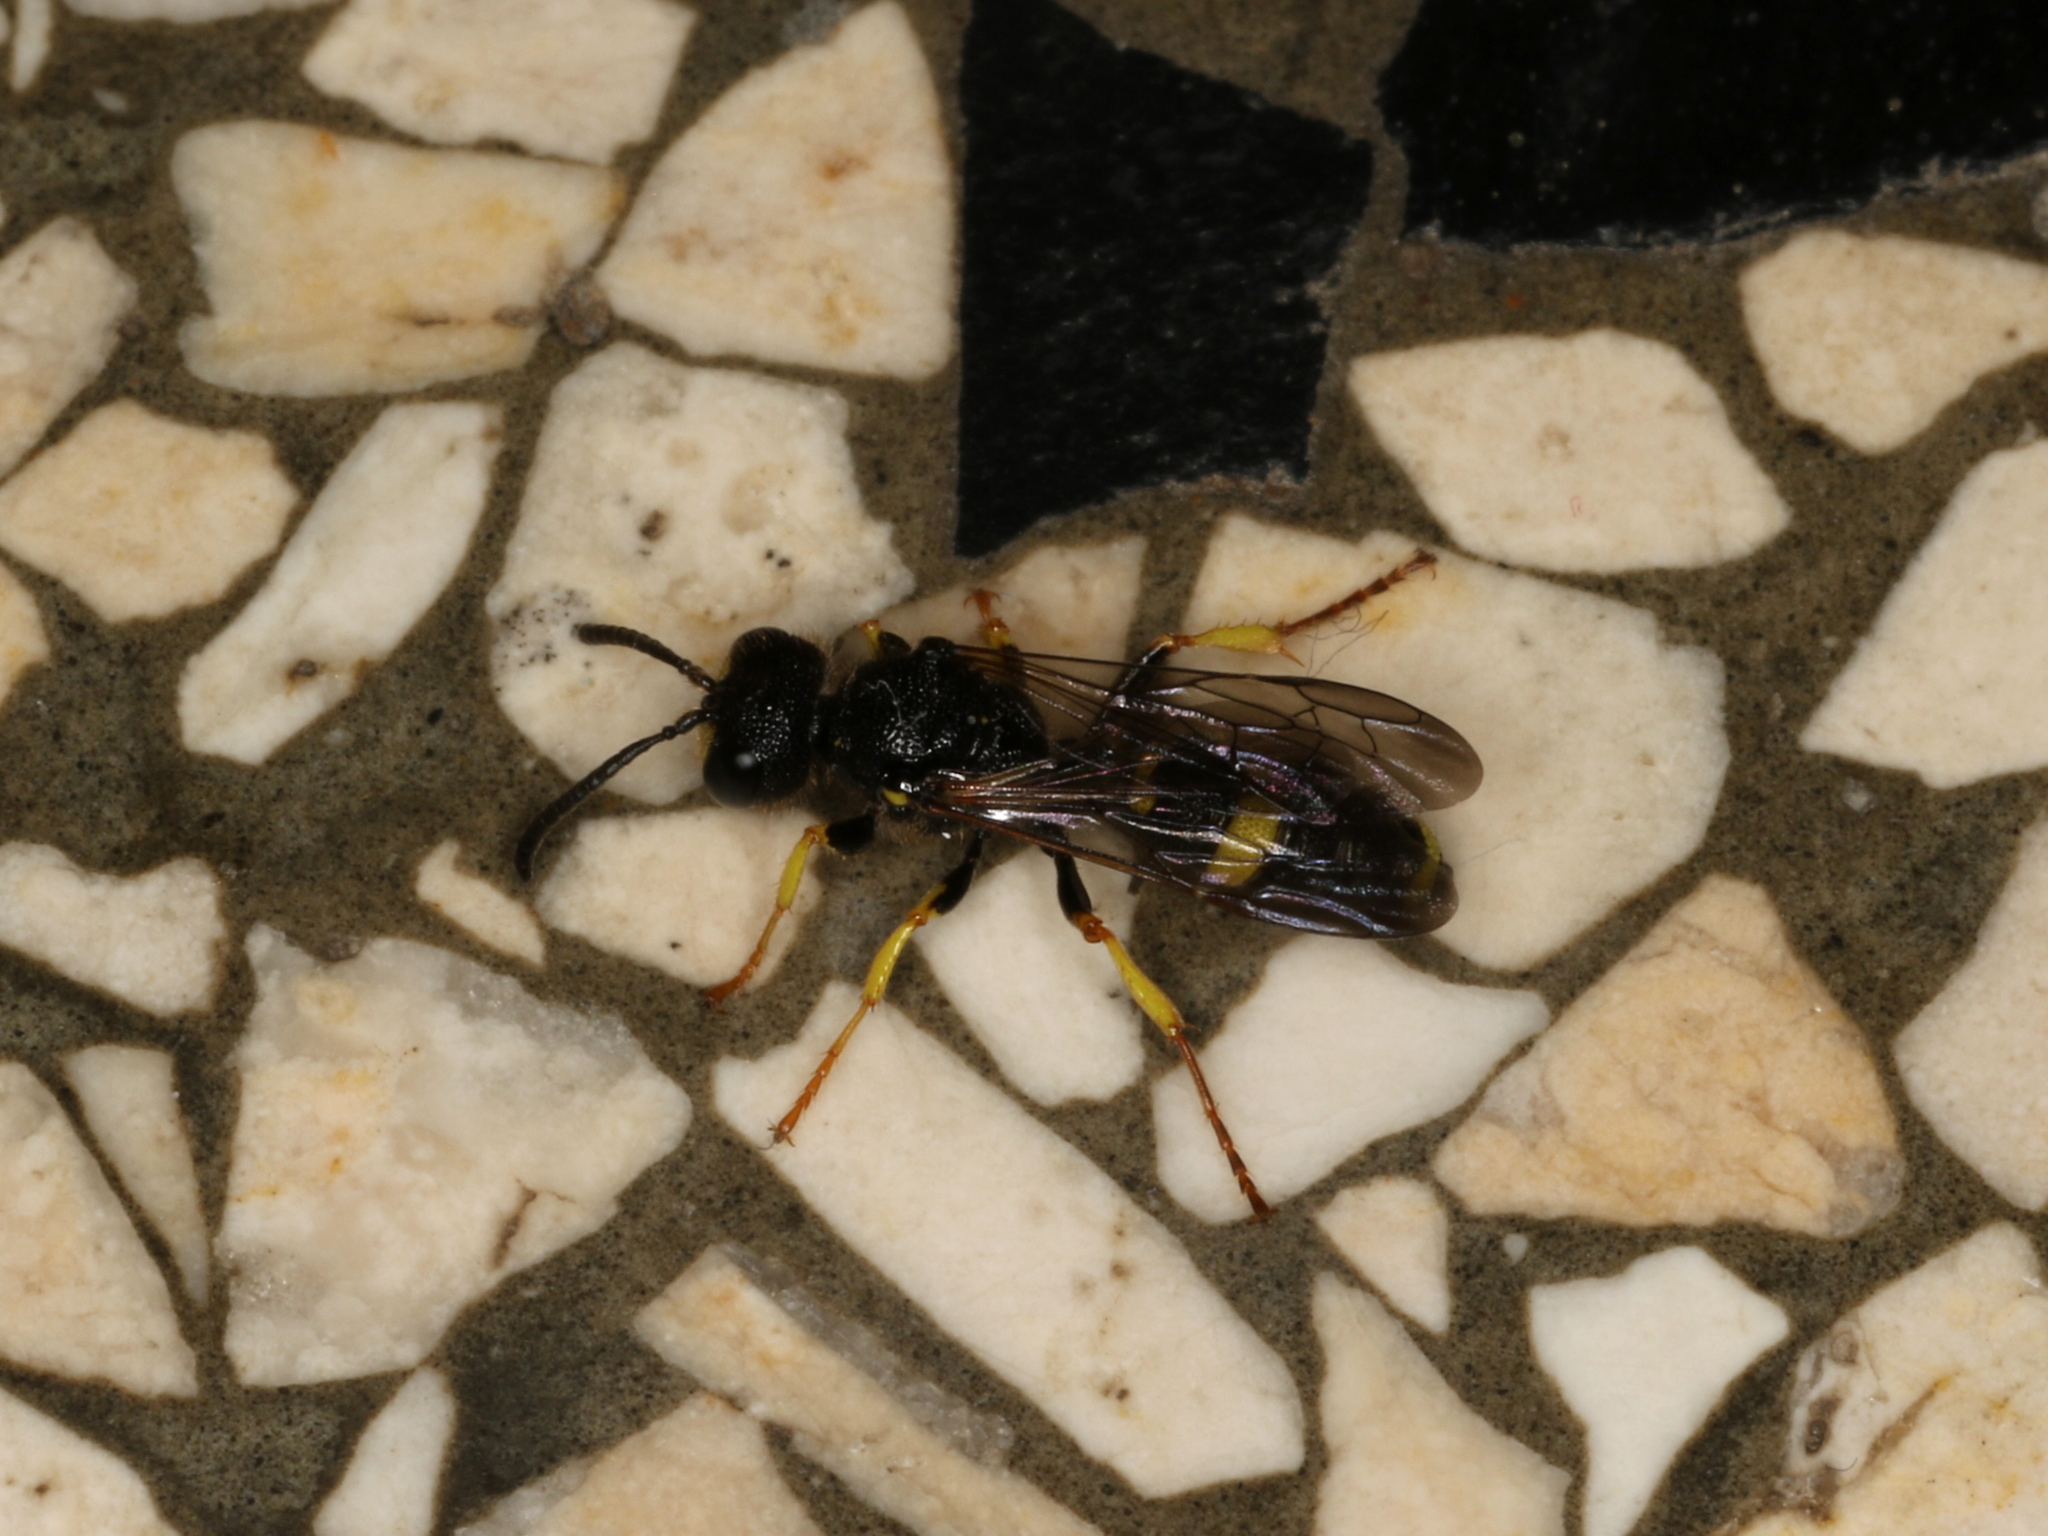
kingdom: Animalia
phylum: Arthropoda
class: Insecta
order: Hymenoptera
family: Crabronidae
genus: Cerceris
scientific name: Cerceris rybyensis
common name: Ornate tailed digger wasp
